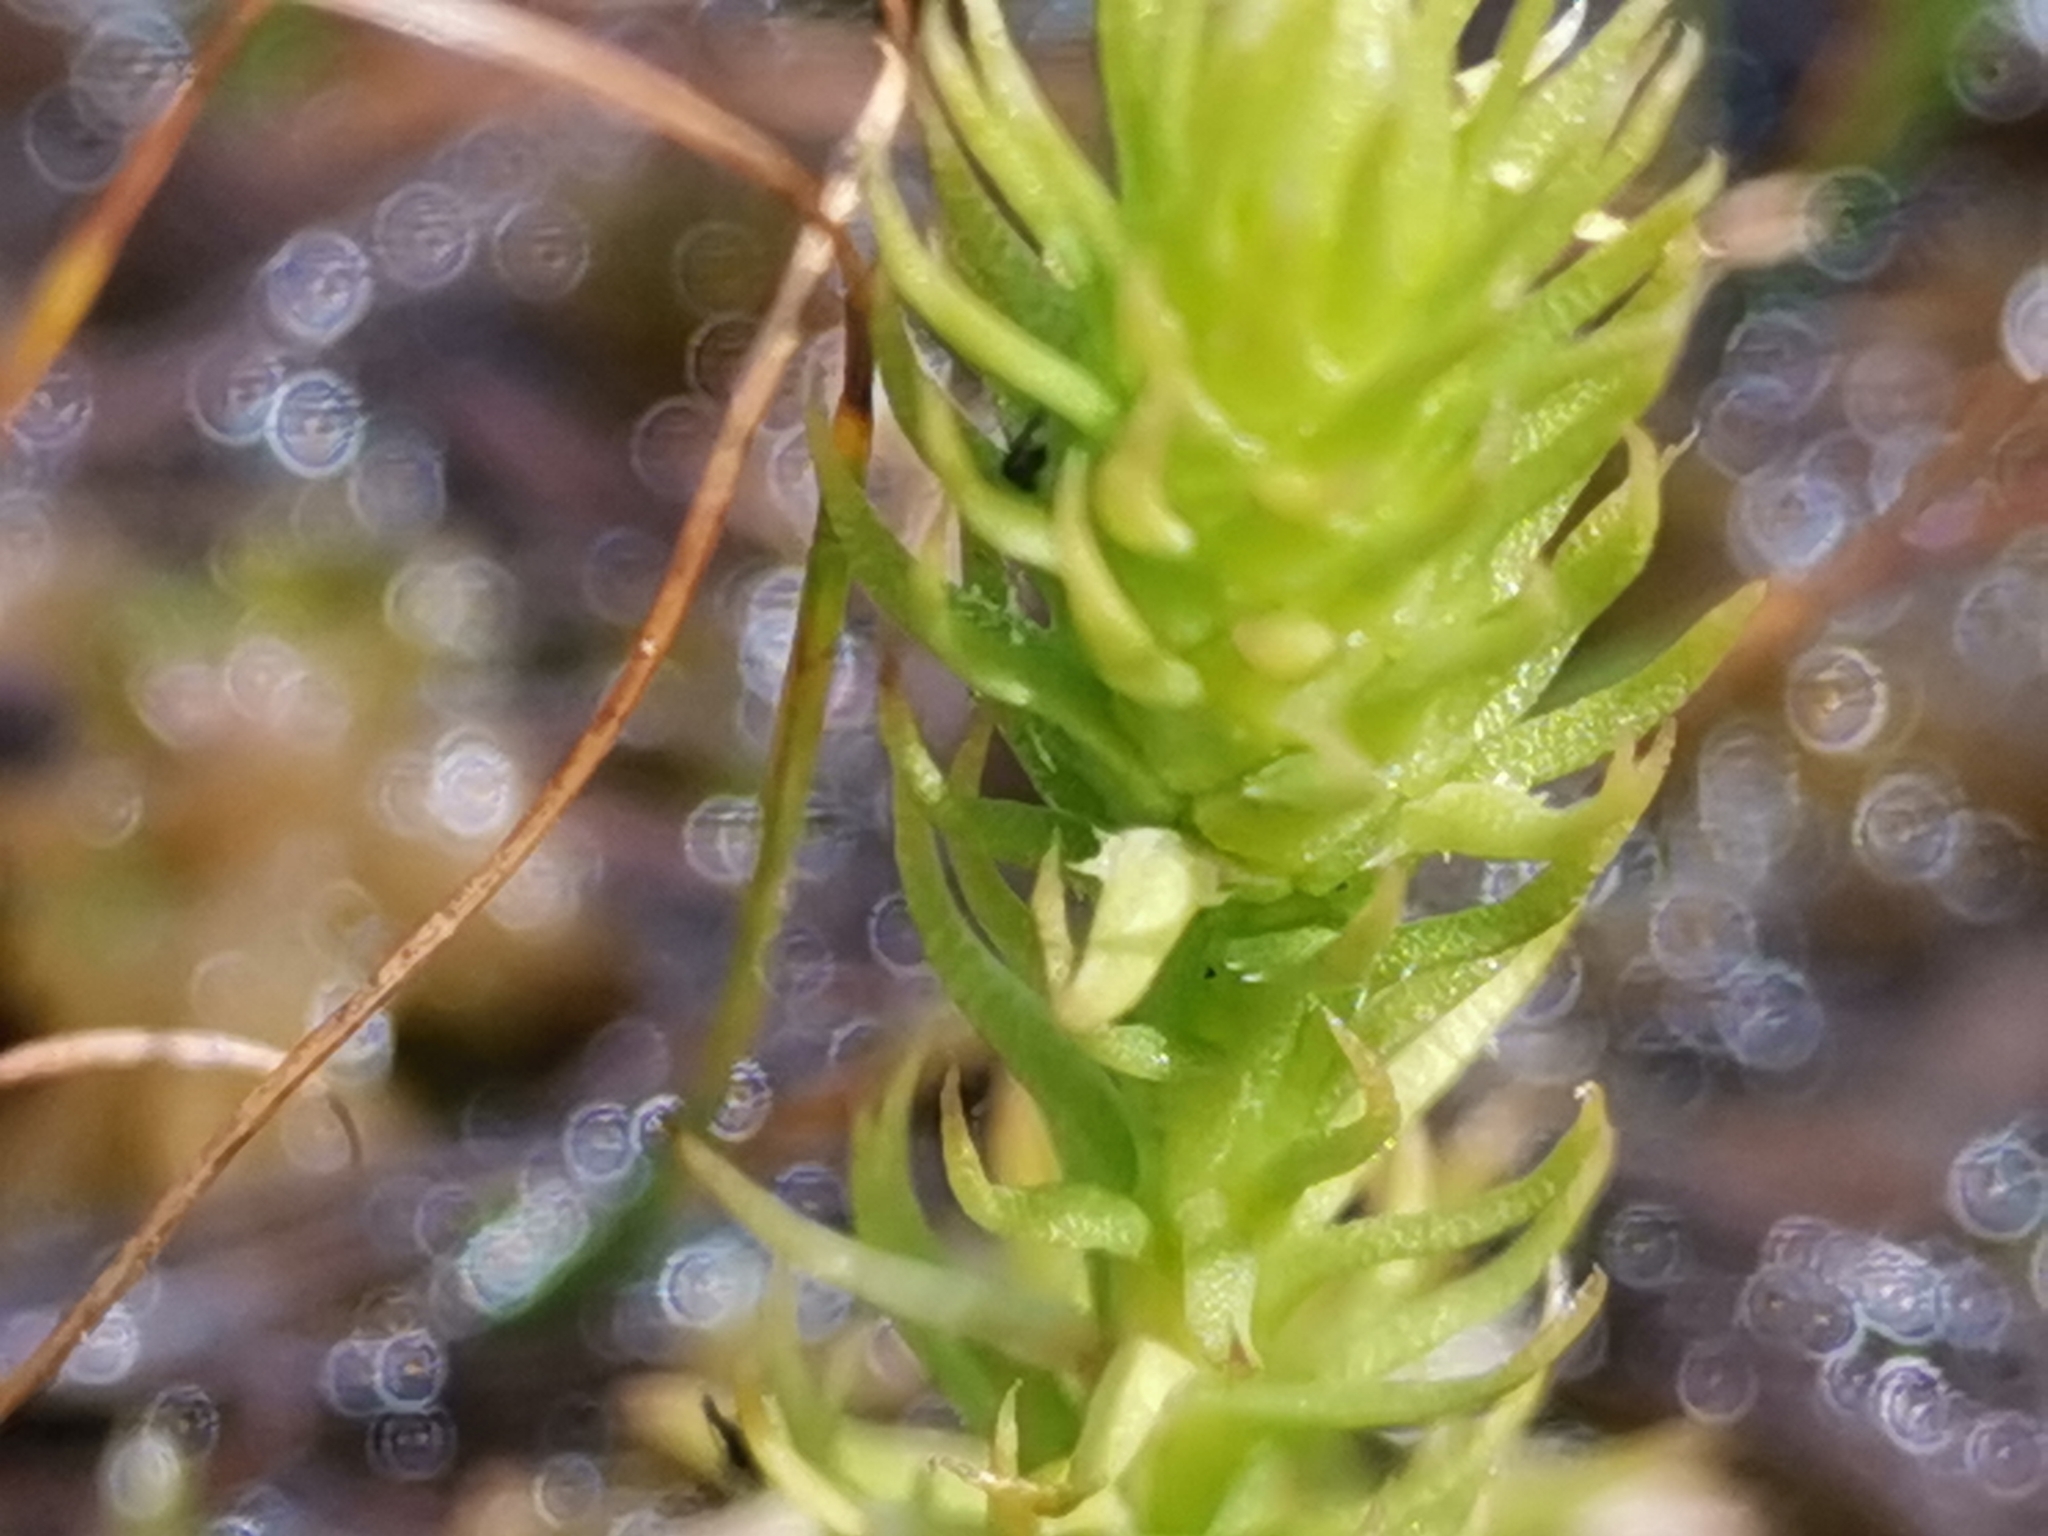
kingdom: Plantae
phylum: Tracheophyta
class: Lycopodiopsida
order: Lycopodiales
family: Lycopodiaceae
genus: Lycopodiella
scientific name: Lycopodiella inundata
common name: Marsh clubmoss
